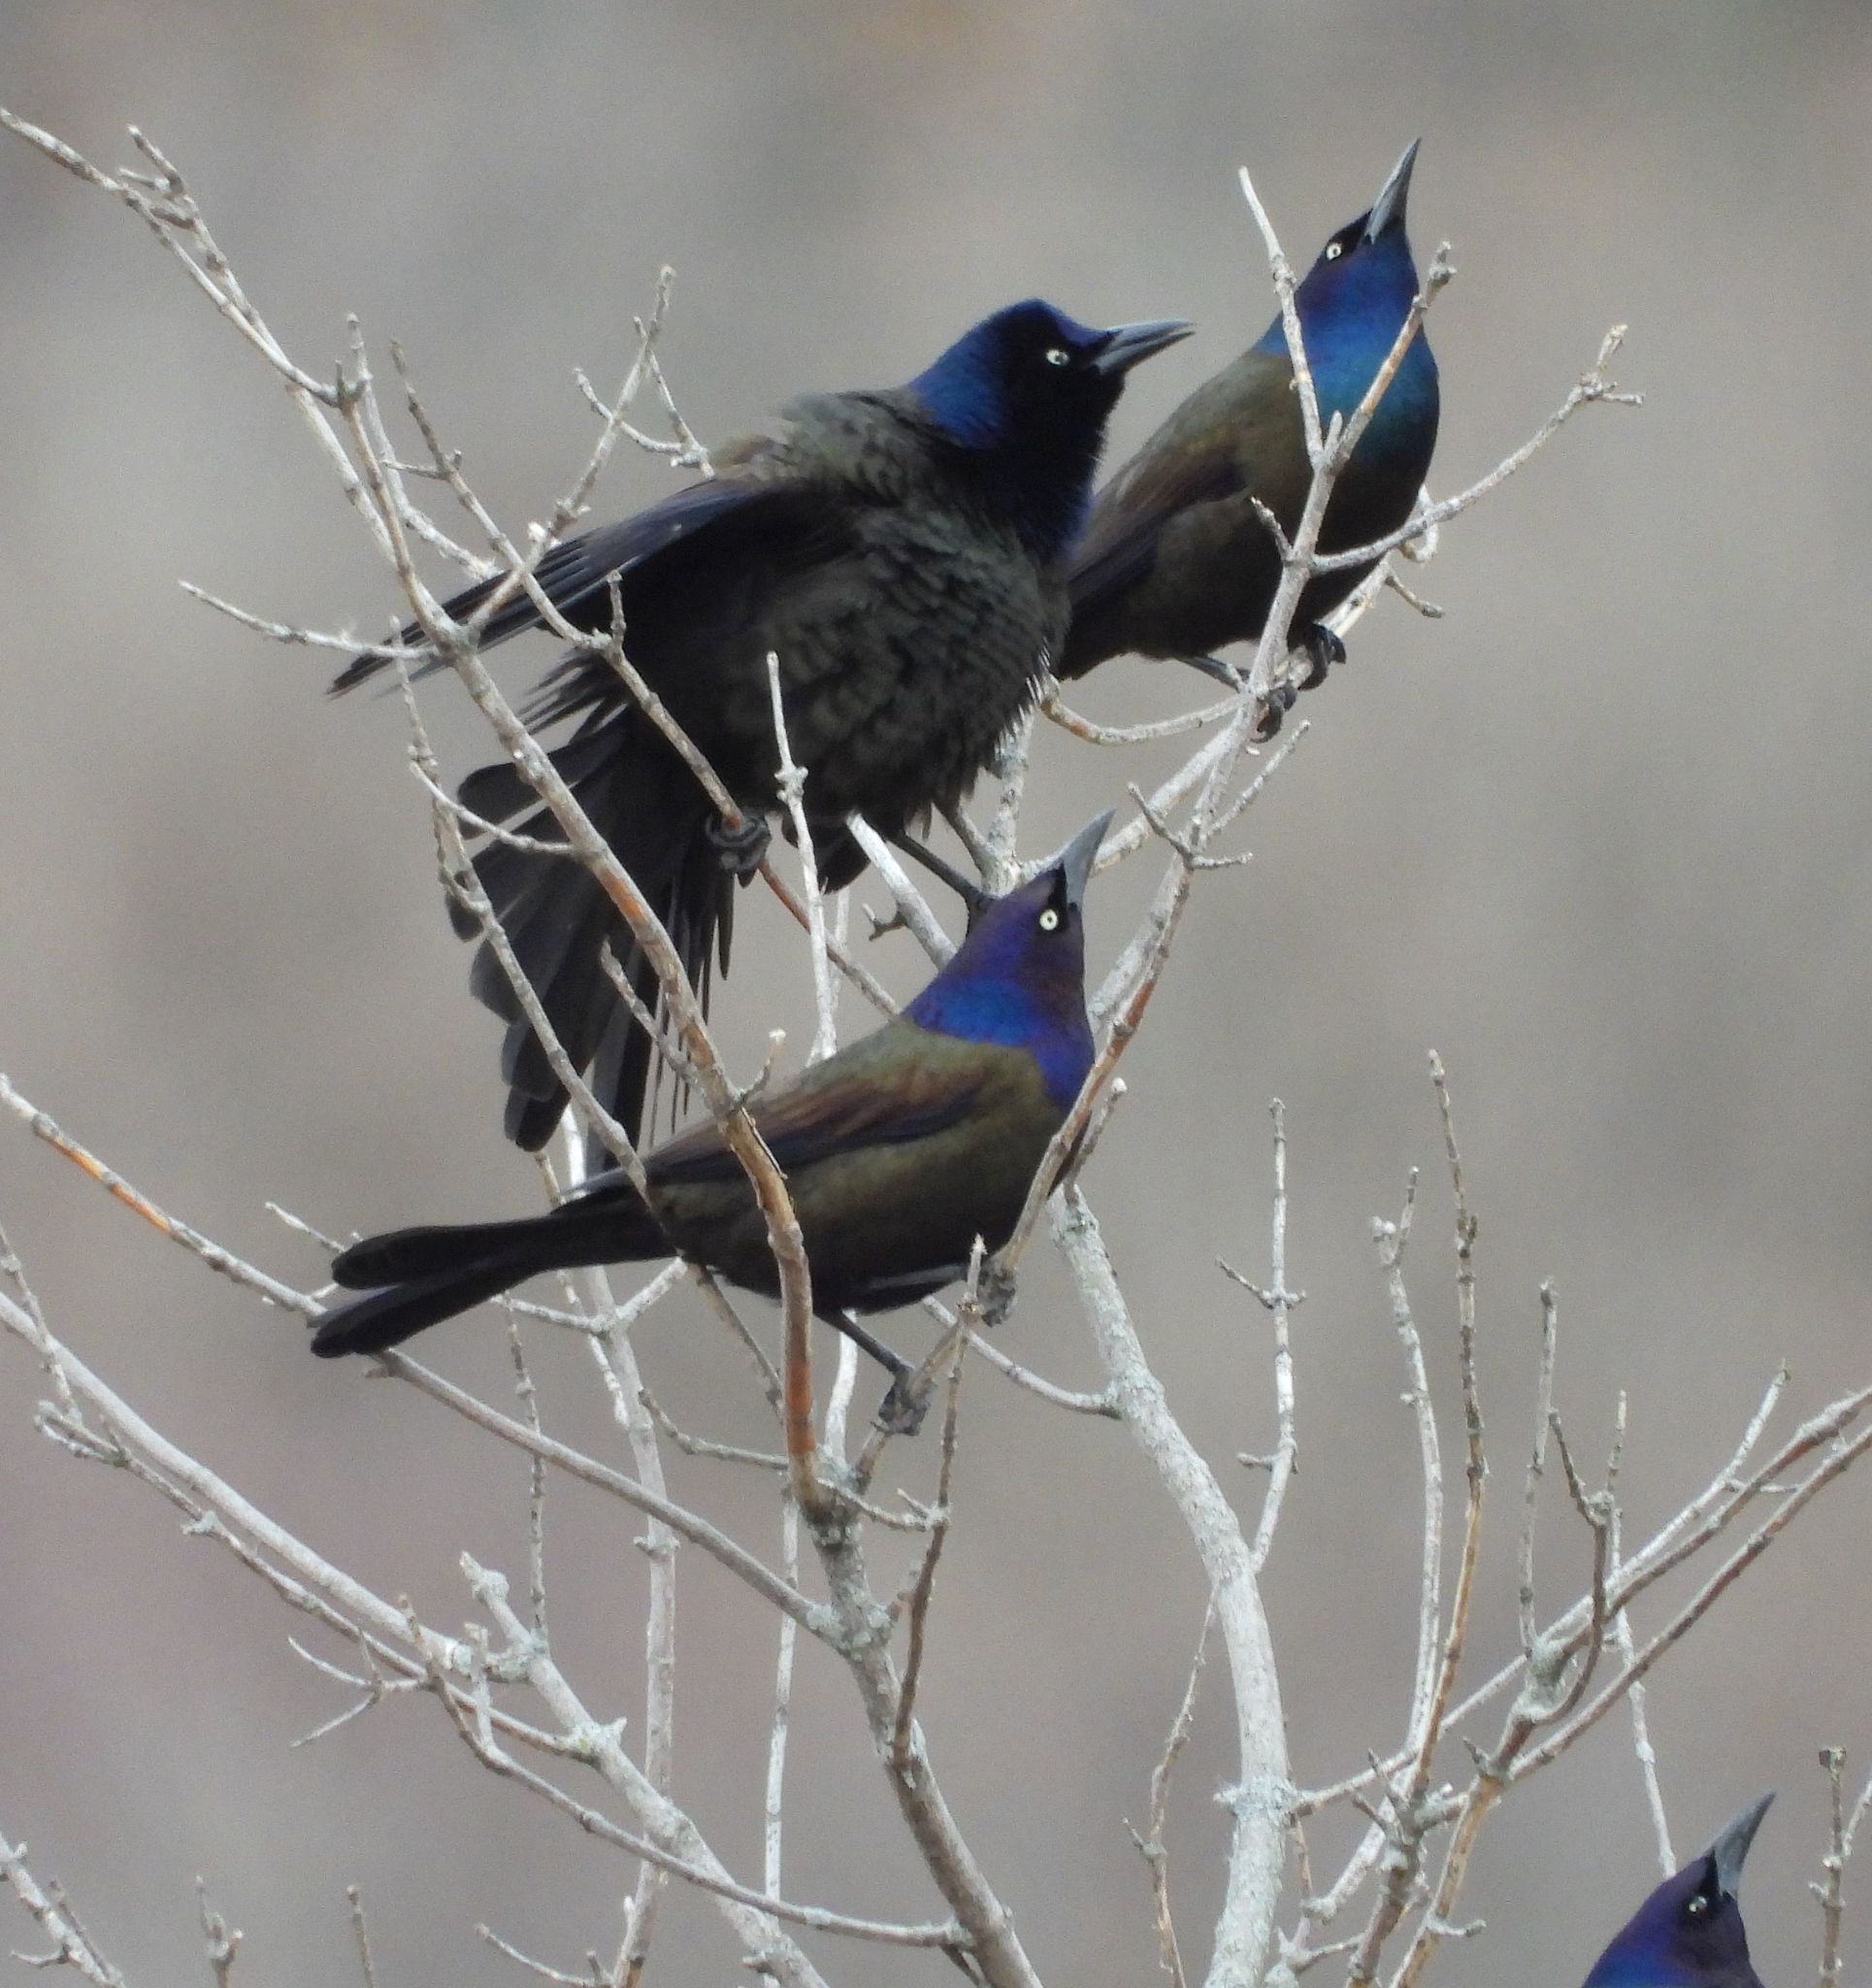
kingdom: Animalia
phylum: Chordata
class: Aves
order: Passeriformes
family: Icteridae
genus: Quiscalus
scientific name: Quiscalus quiscula
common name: Common grackle
